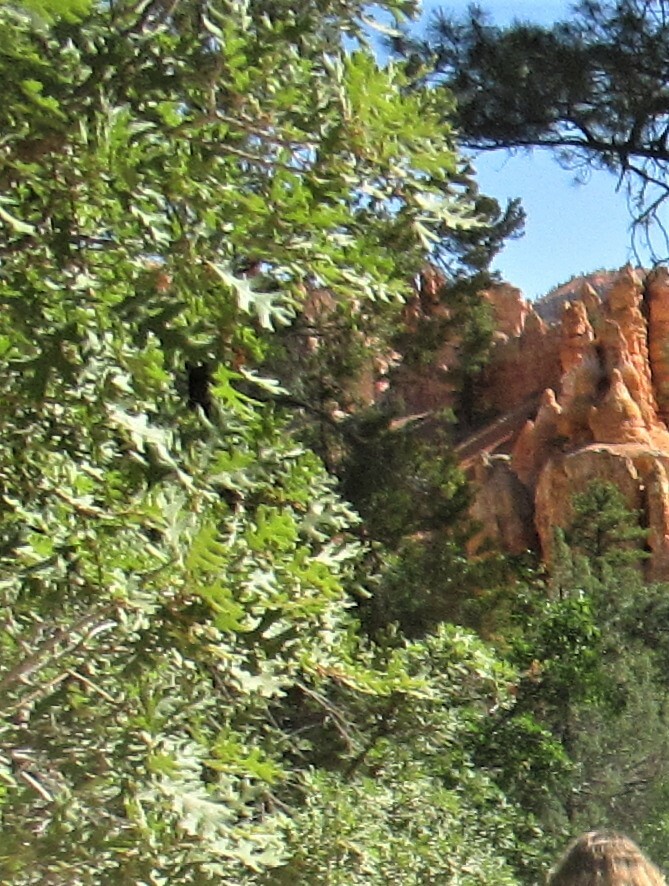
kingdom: Plantae
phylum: Tracheophyta
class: Magnoliopsida
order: Fagales
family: Fagaceae
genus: Quercus
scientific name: Quercus gambelii
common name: Gambel oak
